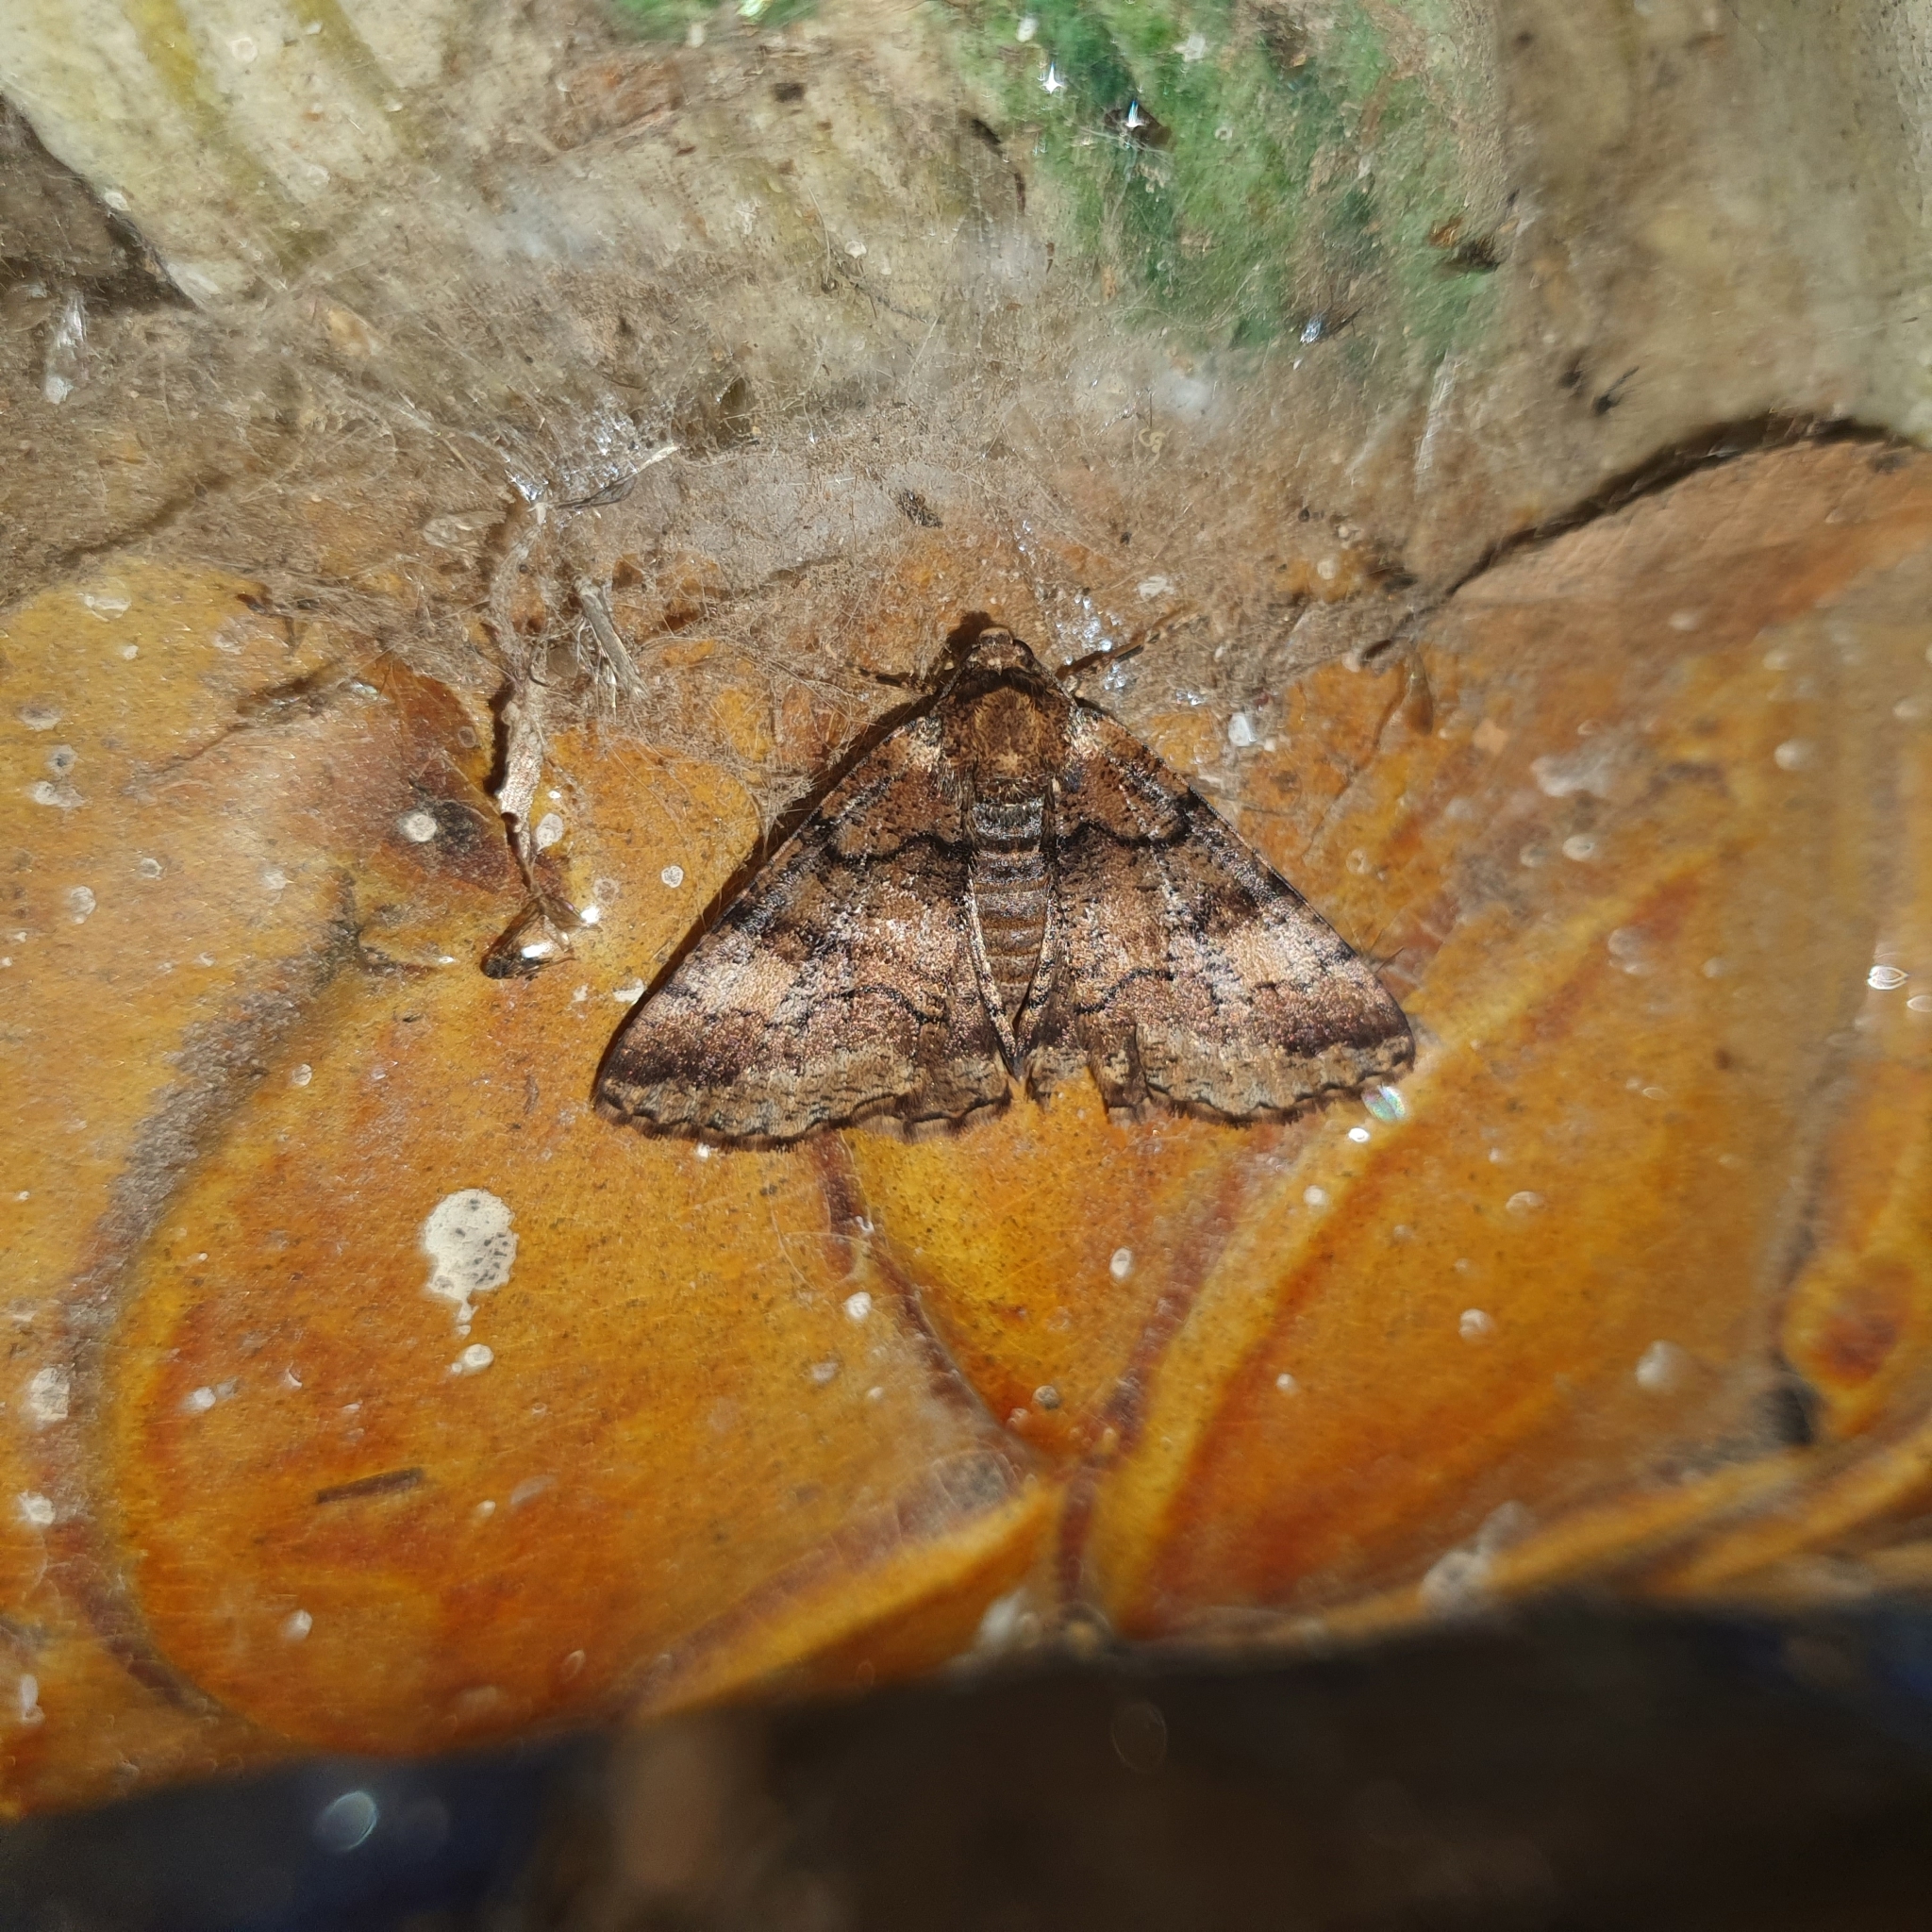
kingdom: Animalia
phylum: Arthropoda
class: Insecta
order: Lepidoptera
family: Geometridae
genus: Cryphaea
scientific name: Cryphaea xylina
